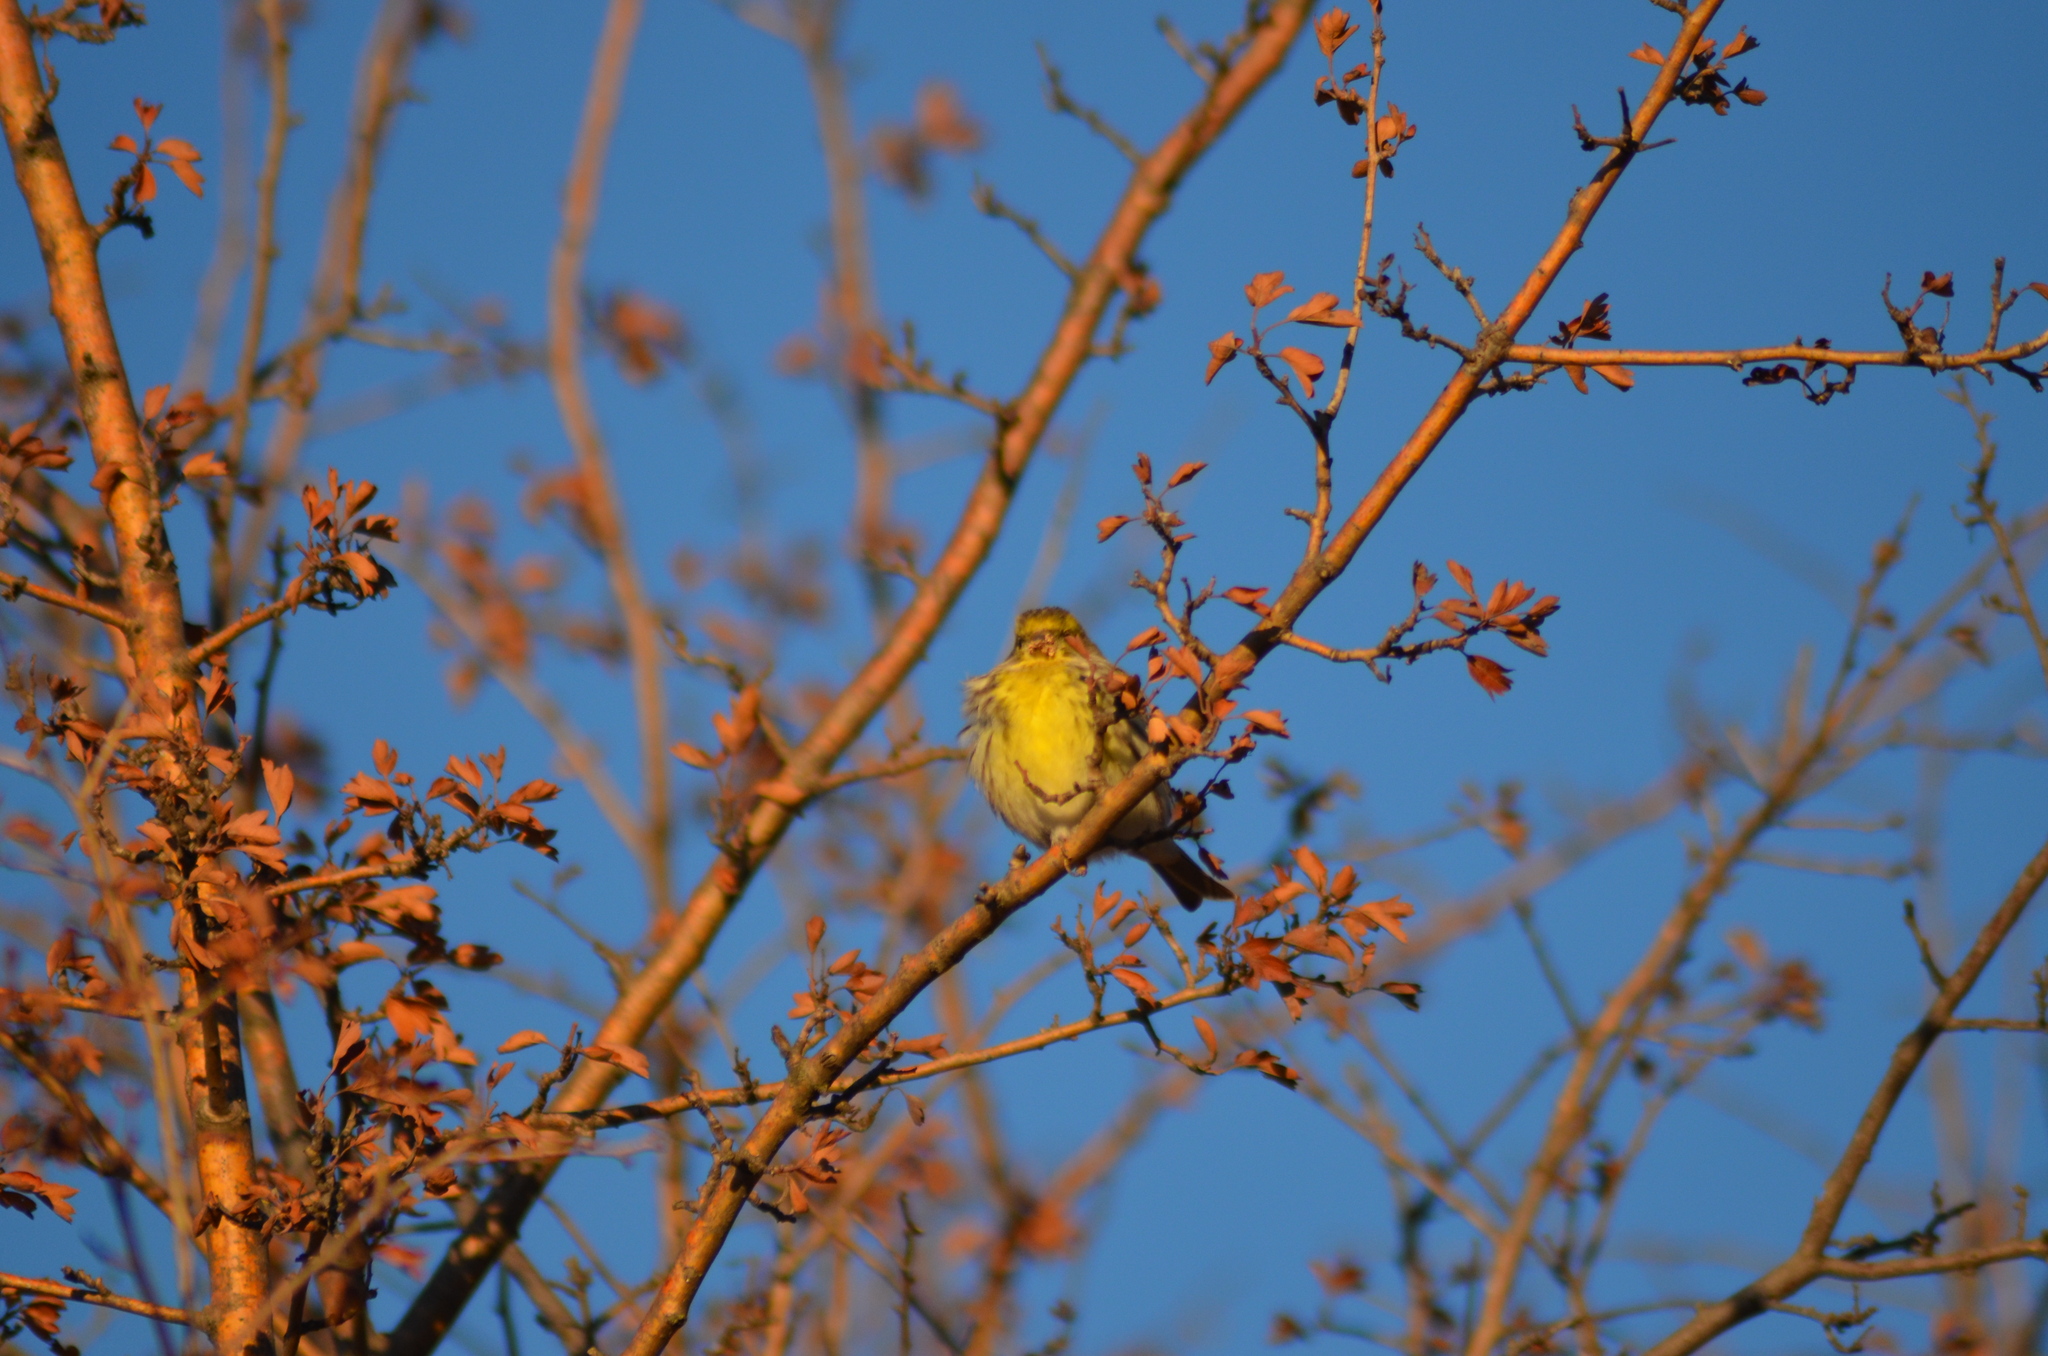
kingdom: Animalia
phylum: Chordata
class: Aves
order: Passeriformes
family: Fringillidae
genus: Serinus
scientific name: Serinus serinus
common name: European serin
